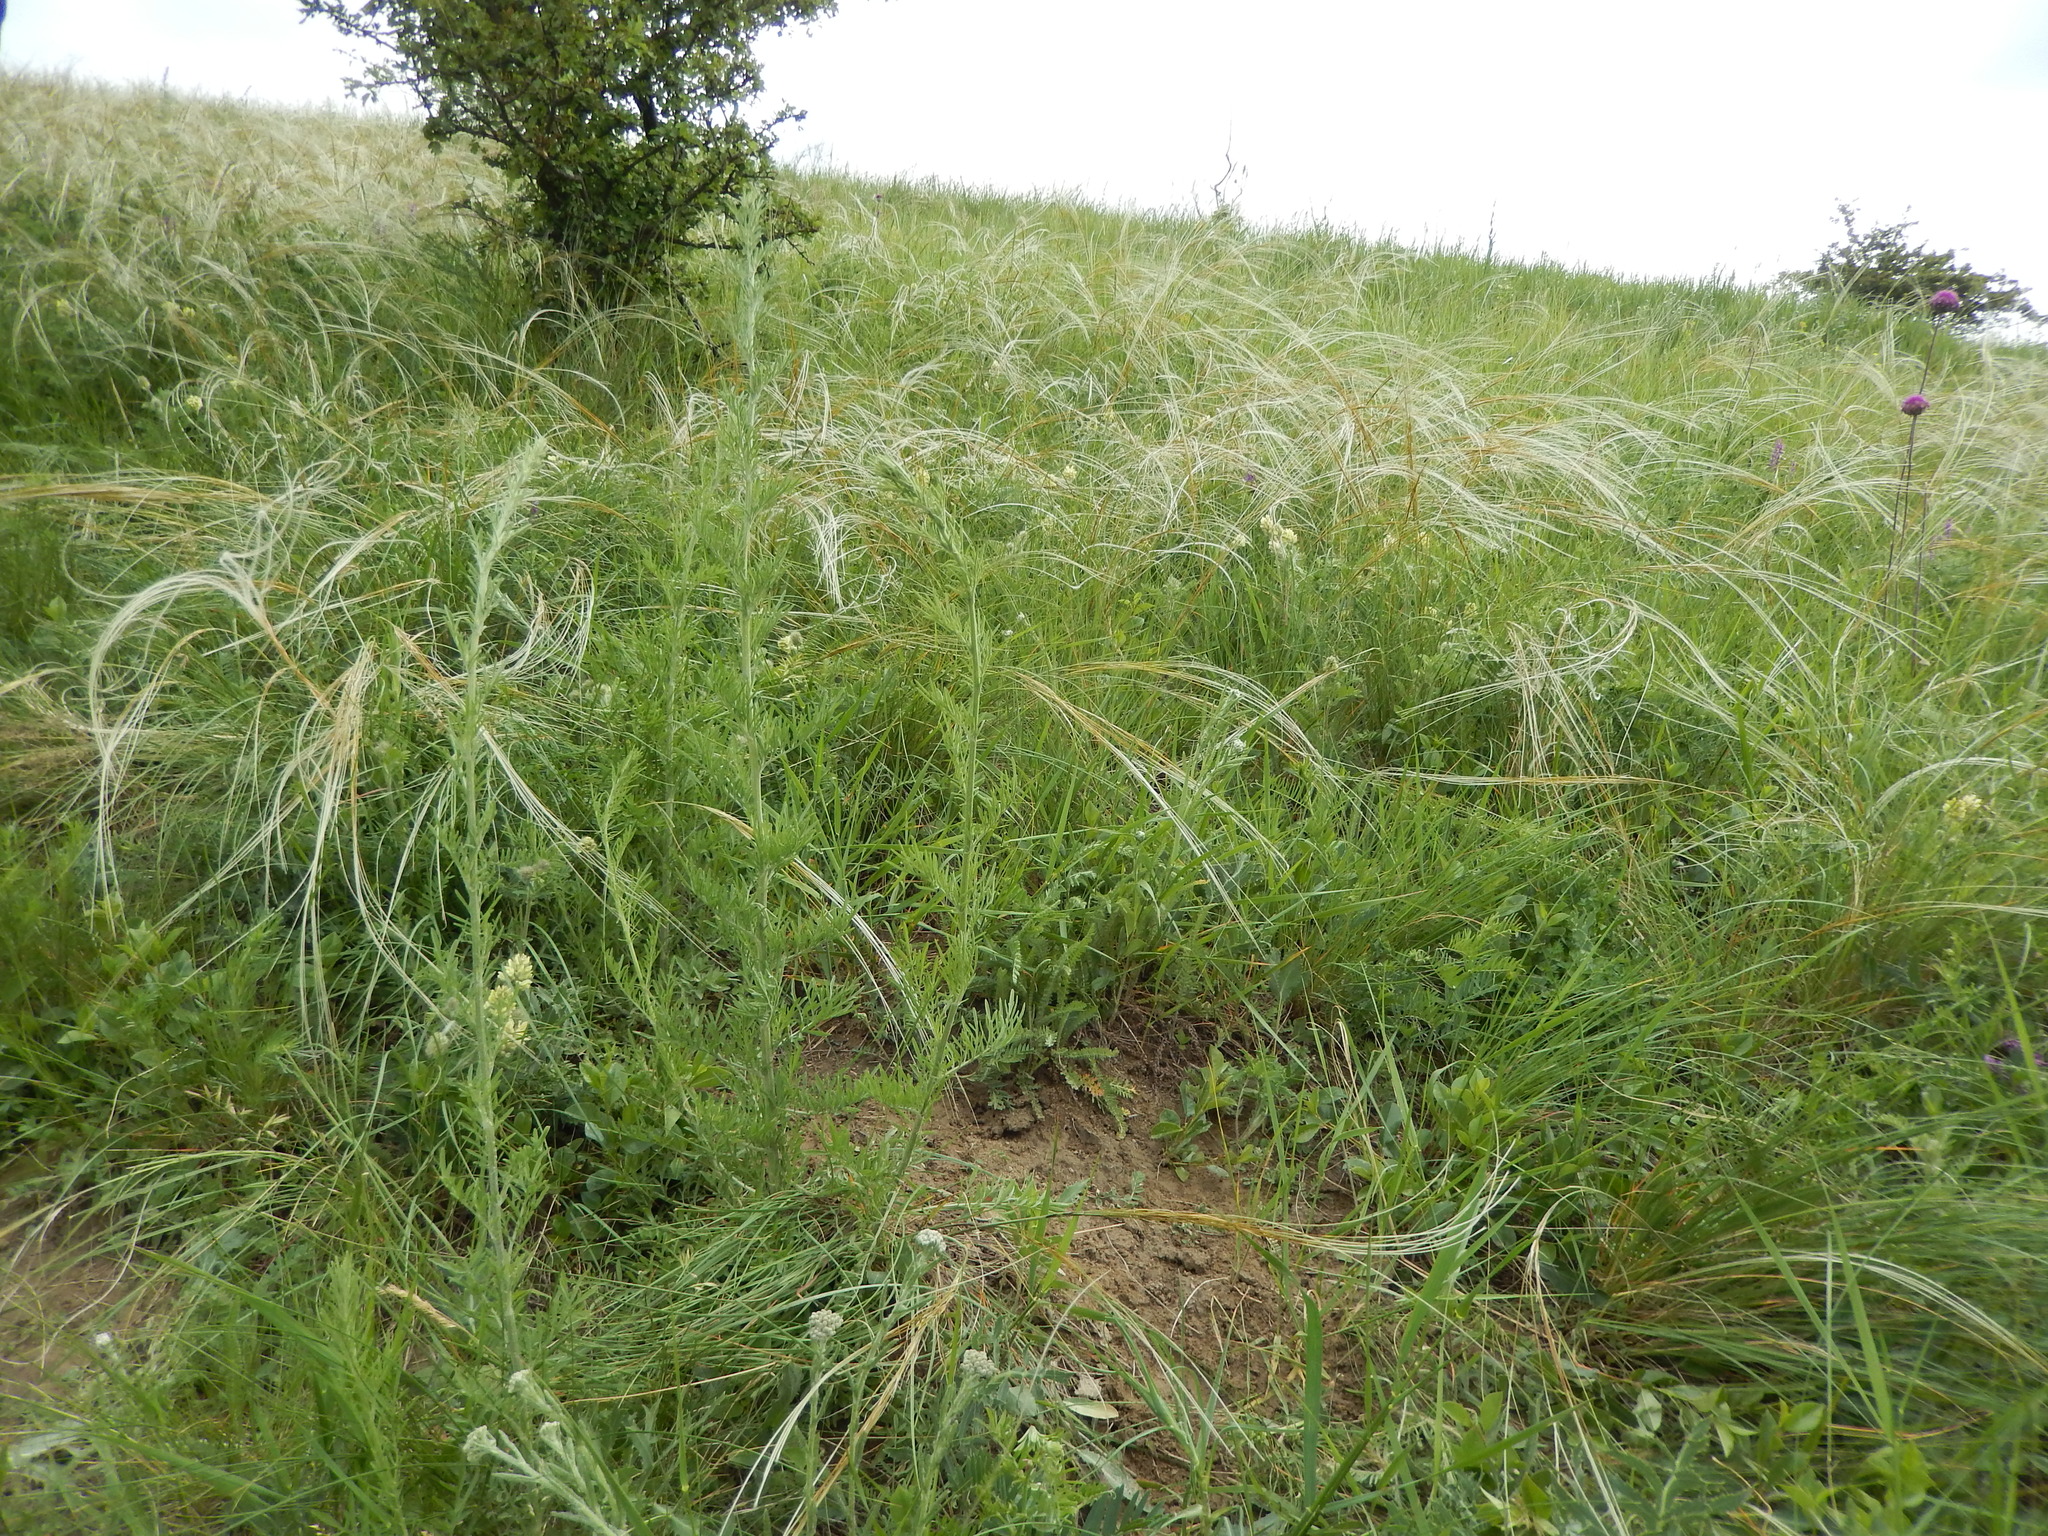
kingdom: Plantae
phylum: Tracheophyta
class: Liliopsida
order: Poales
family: Poaceae
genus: Stipa
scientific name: Stipa pennata
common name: European feather grass
